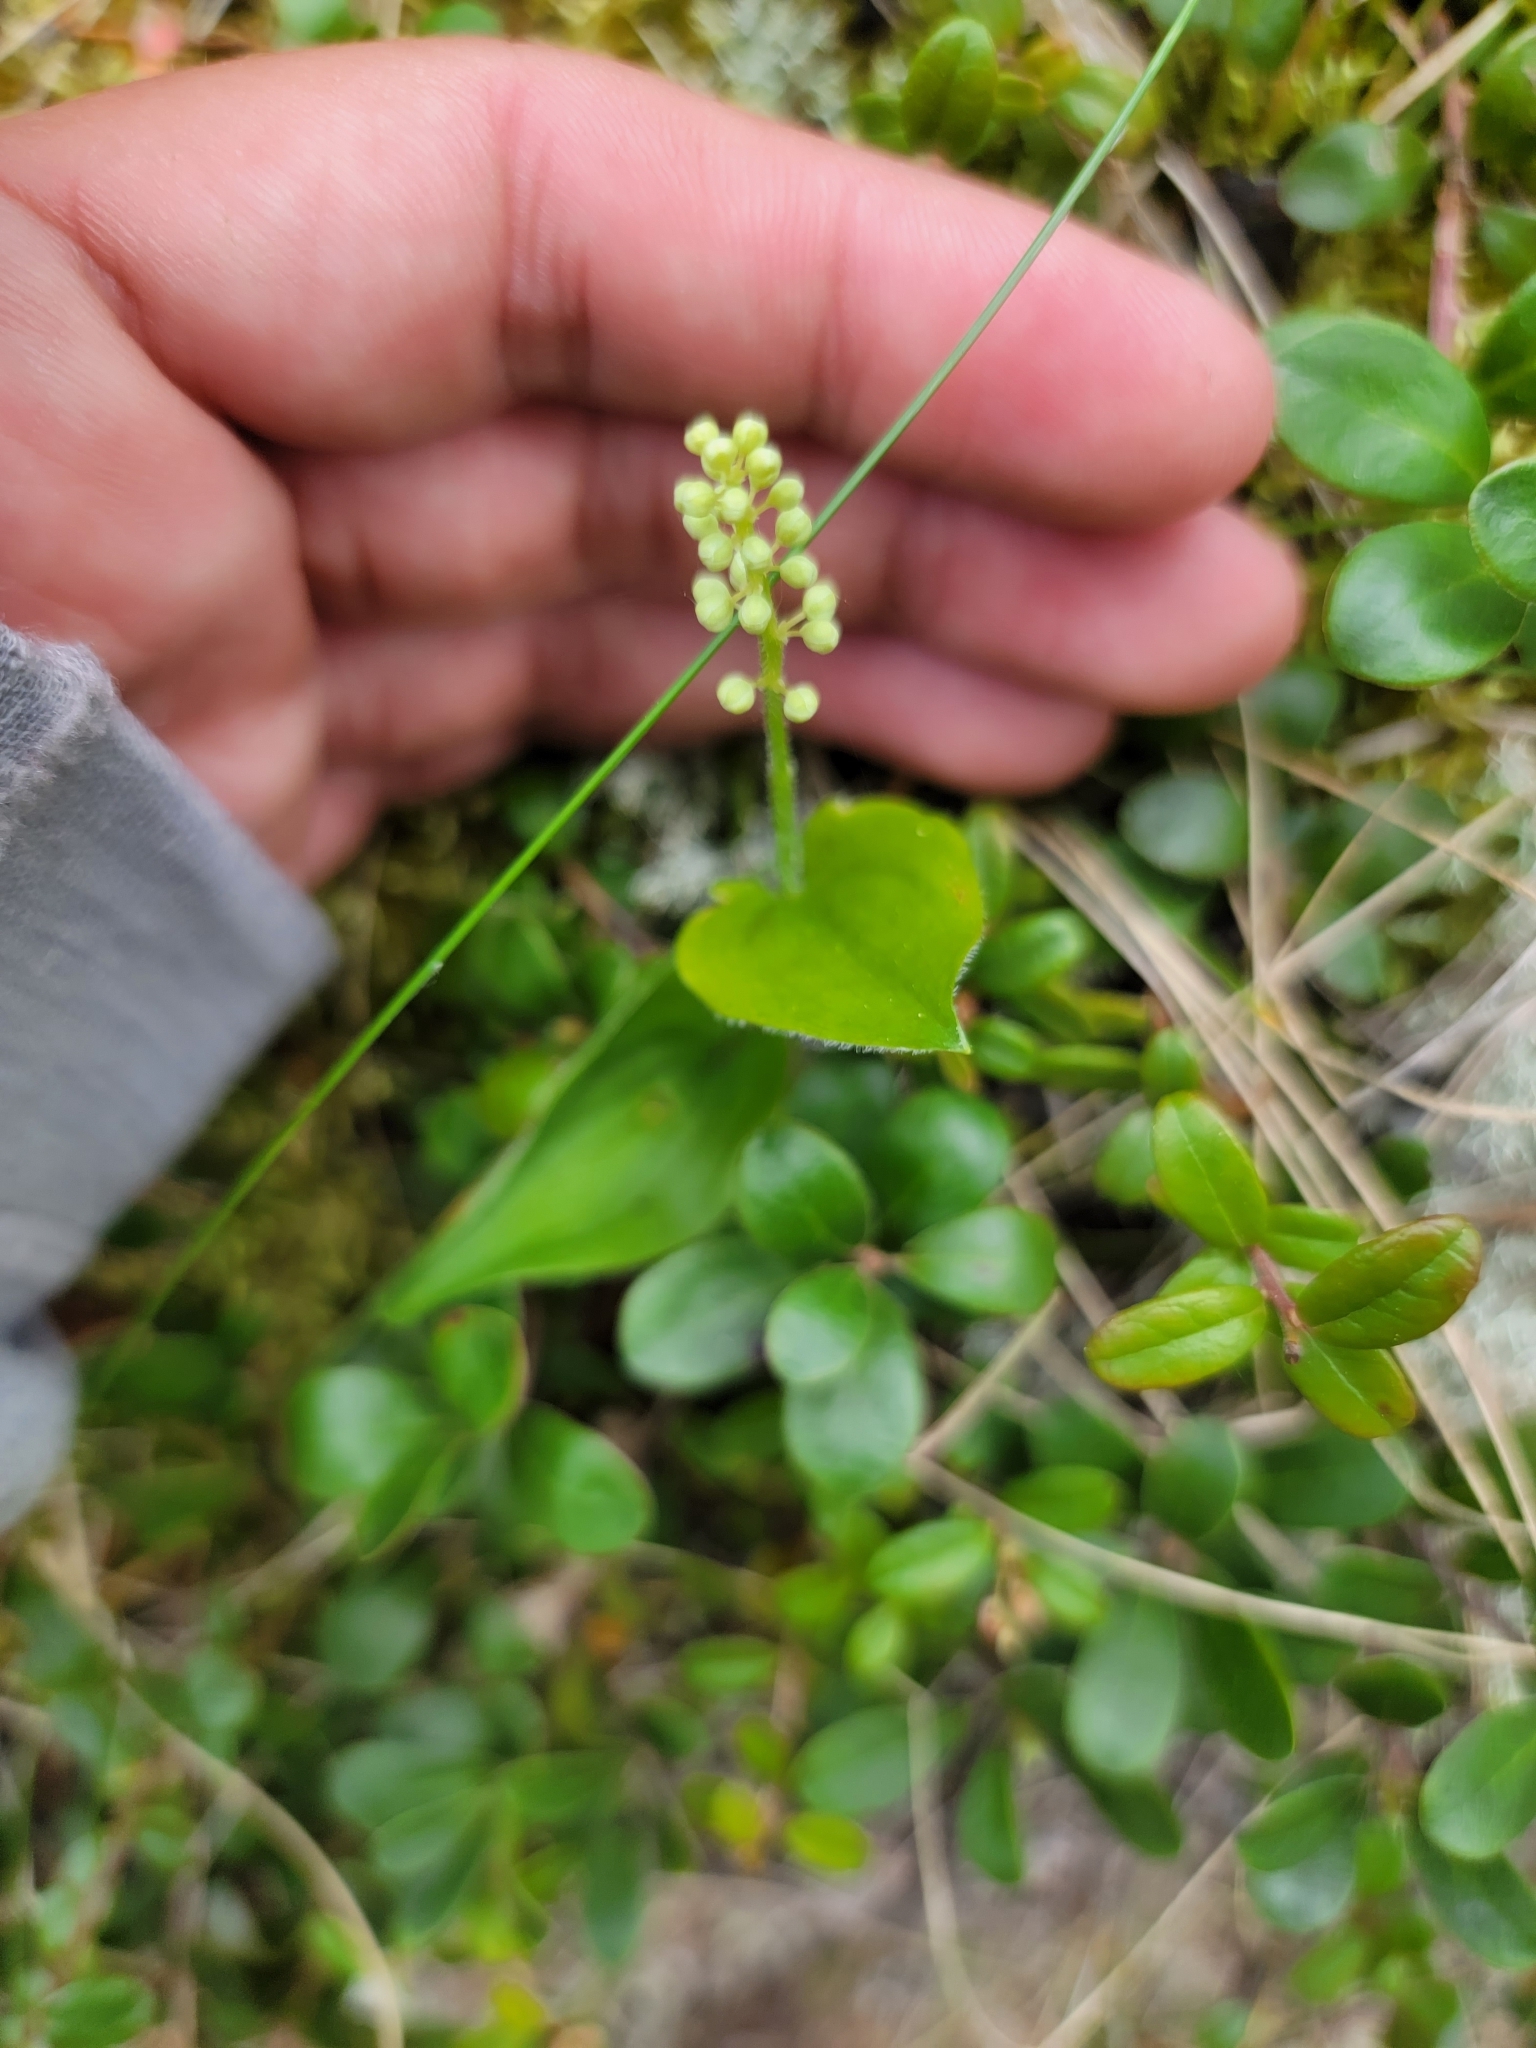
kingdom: Plantae
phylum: Tracheophyta
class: Liliopsida
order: Asparagales
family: Asparagaceae
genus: Maianthemum
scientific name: Maianthemum canadense
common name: False lily-of-the-valley
